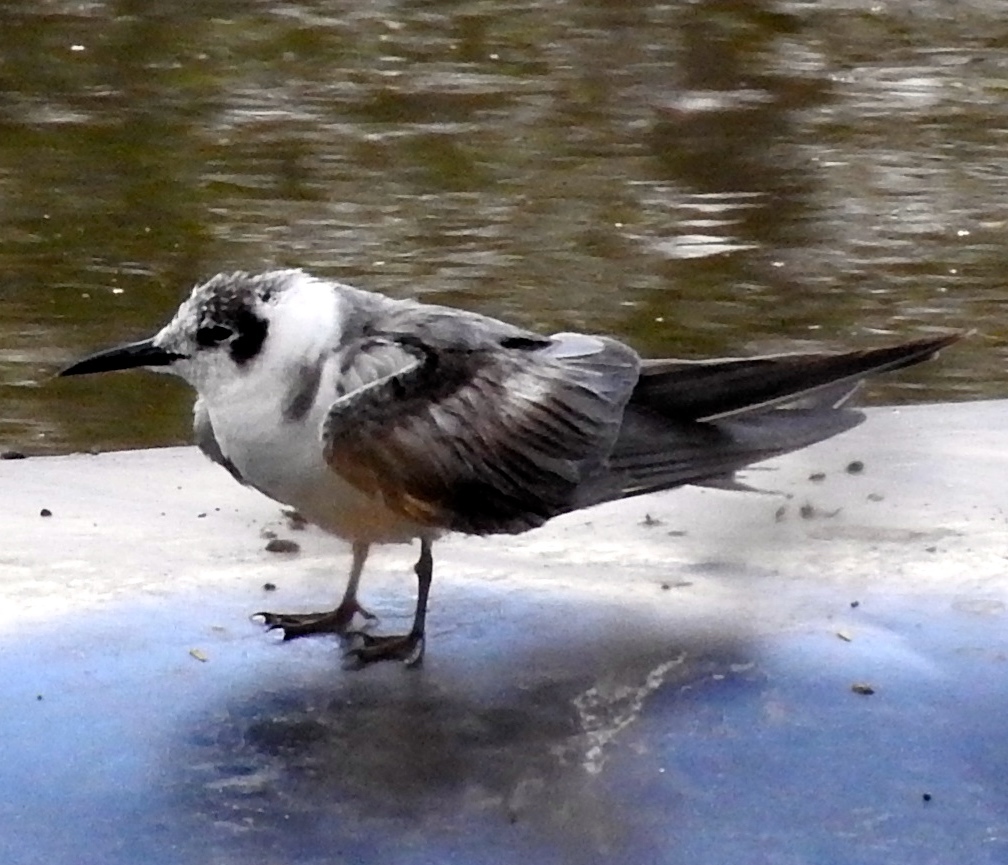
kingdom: Animalia
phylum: Chordata
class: Aves
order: Charadriiformes
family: Laridae
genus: Chlidonias
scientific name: Chlidonias niger
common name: Black tern
